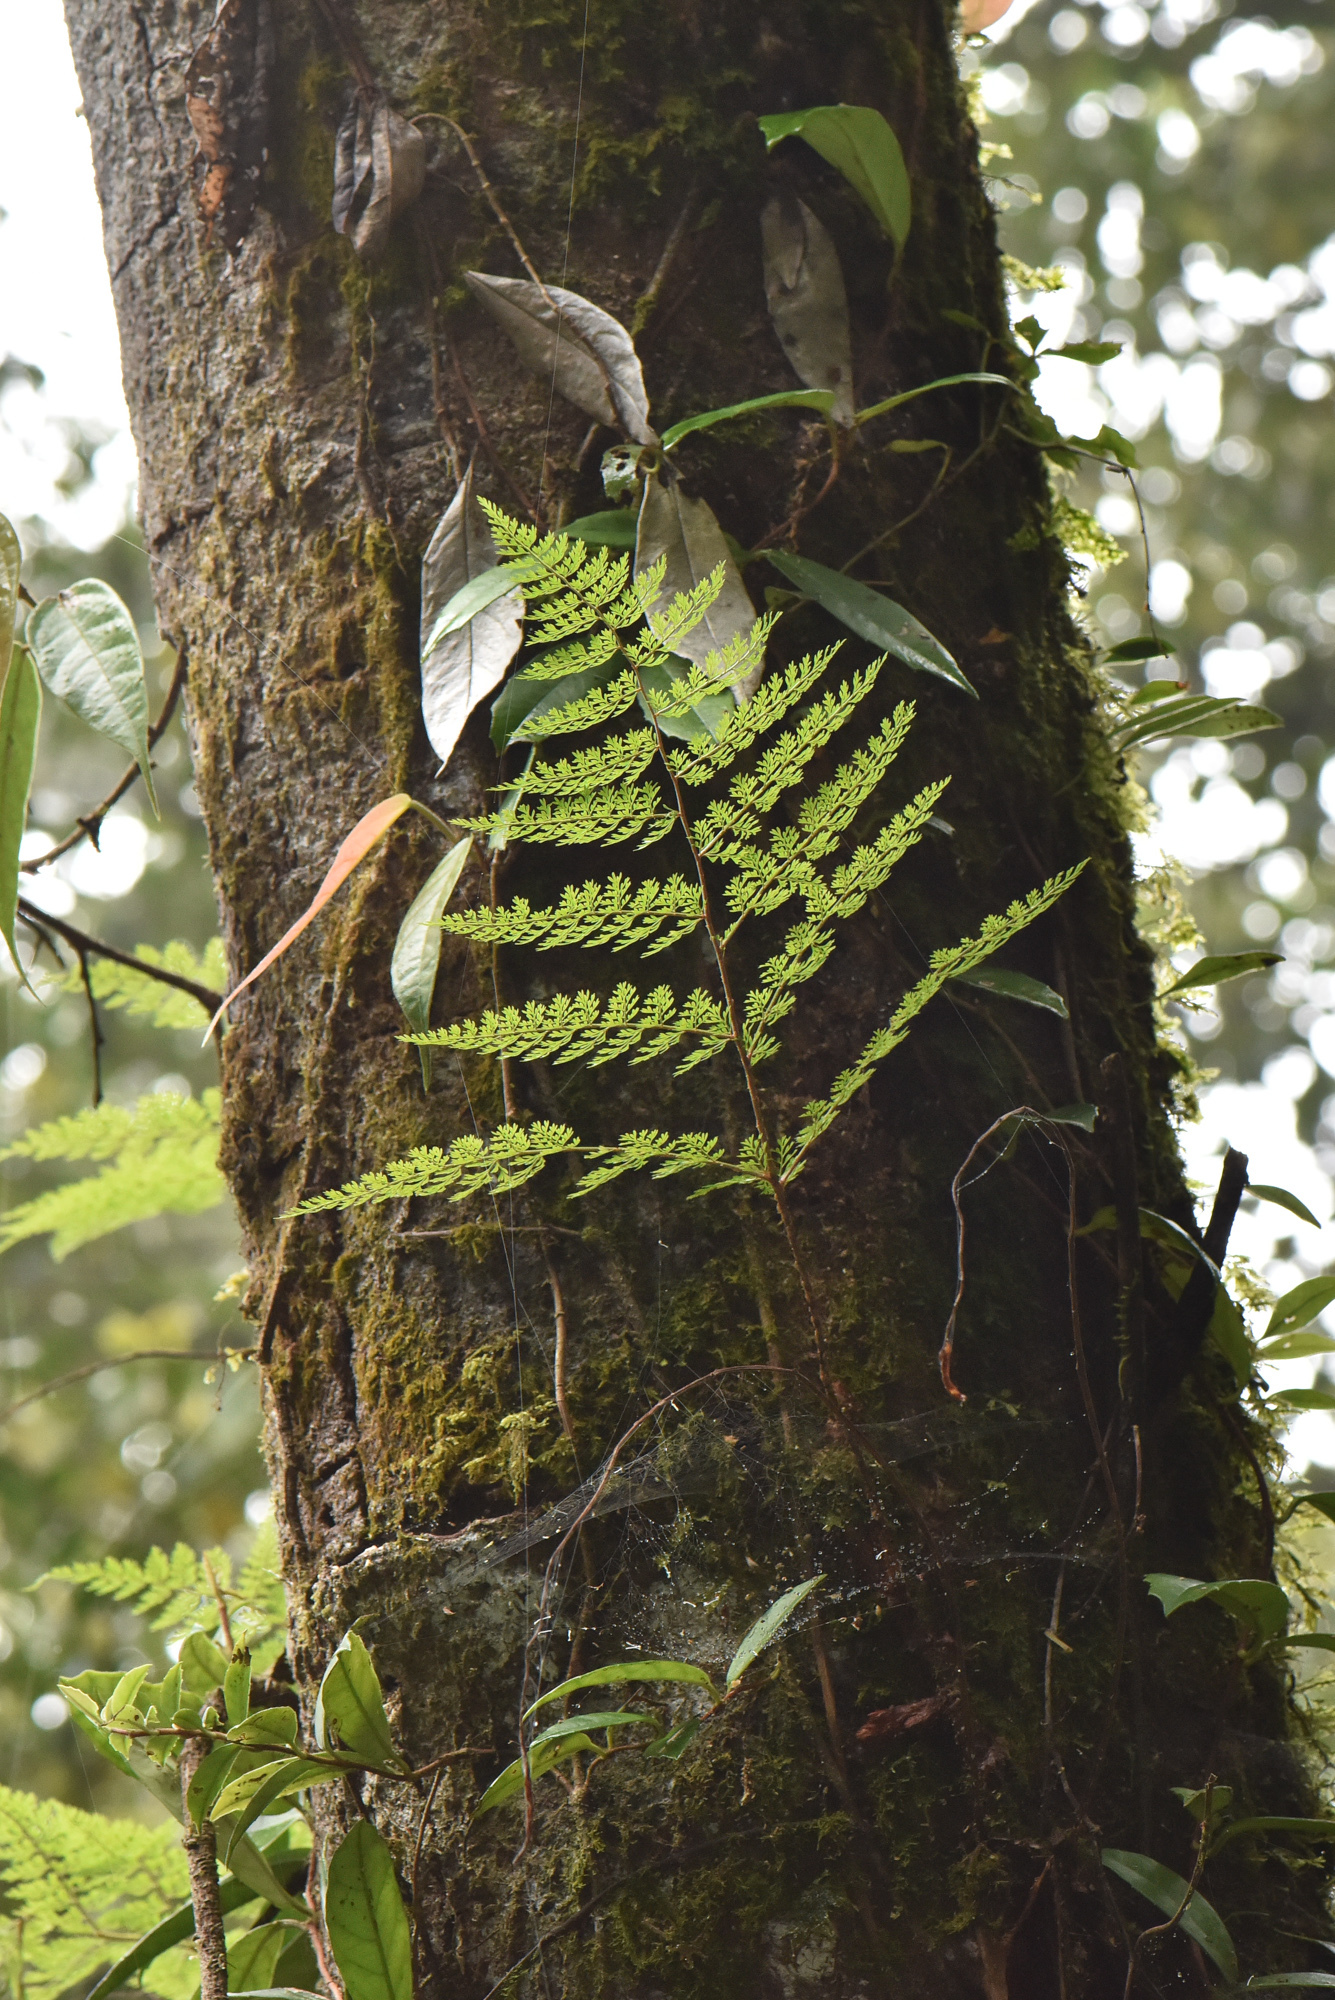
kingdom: Plantae
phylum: Tracheophyta
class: Polypodiopsida
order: Polypodiales
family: Davalliaceae
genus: Davallia
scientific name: Davallia perdurans
